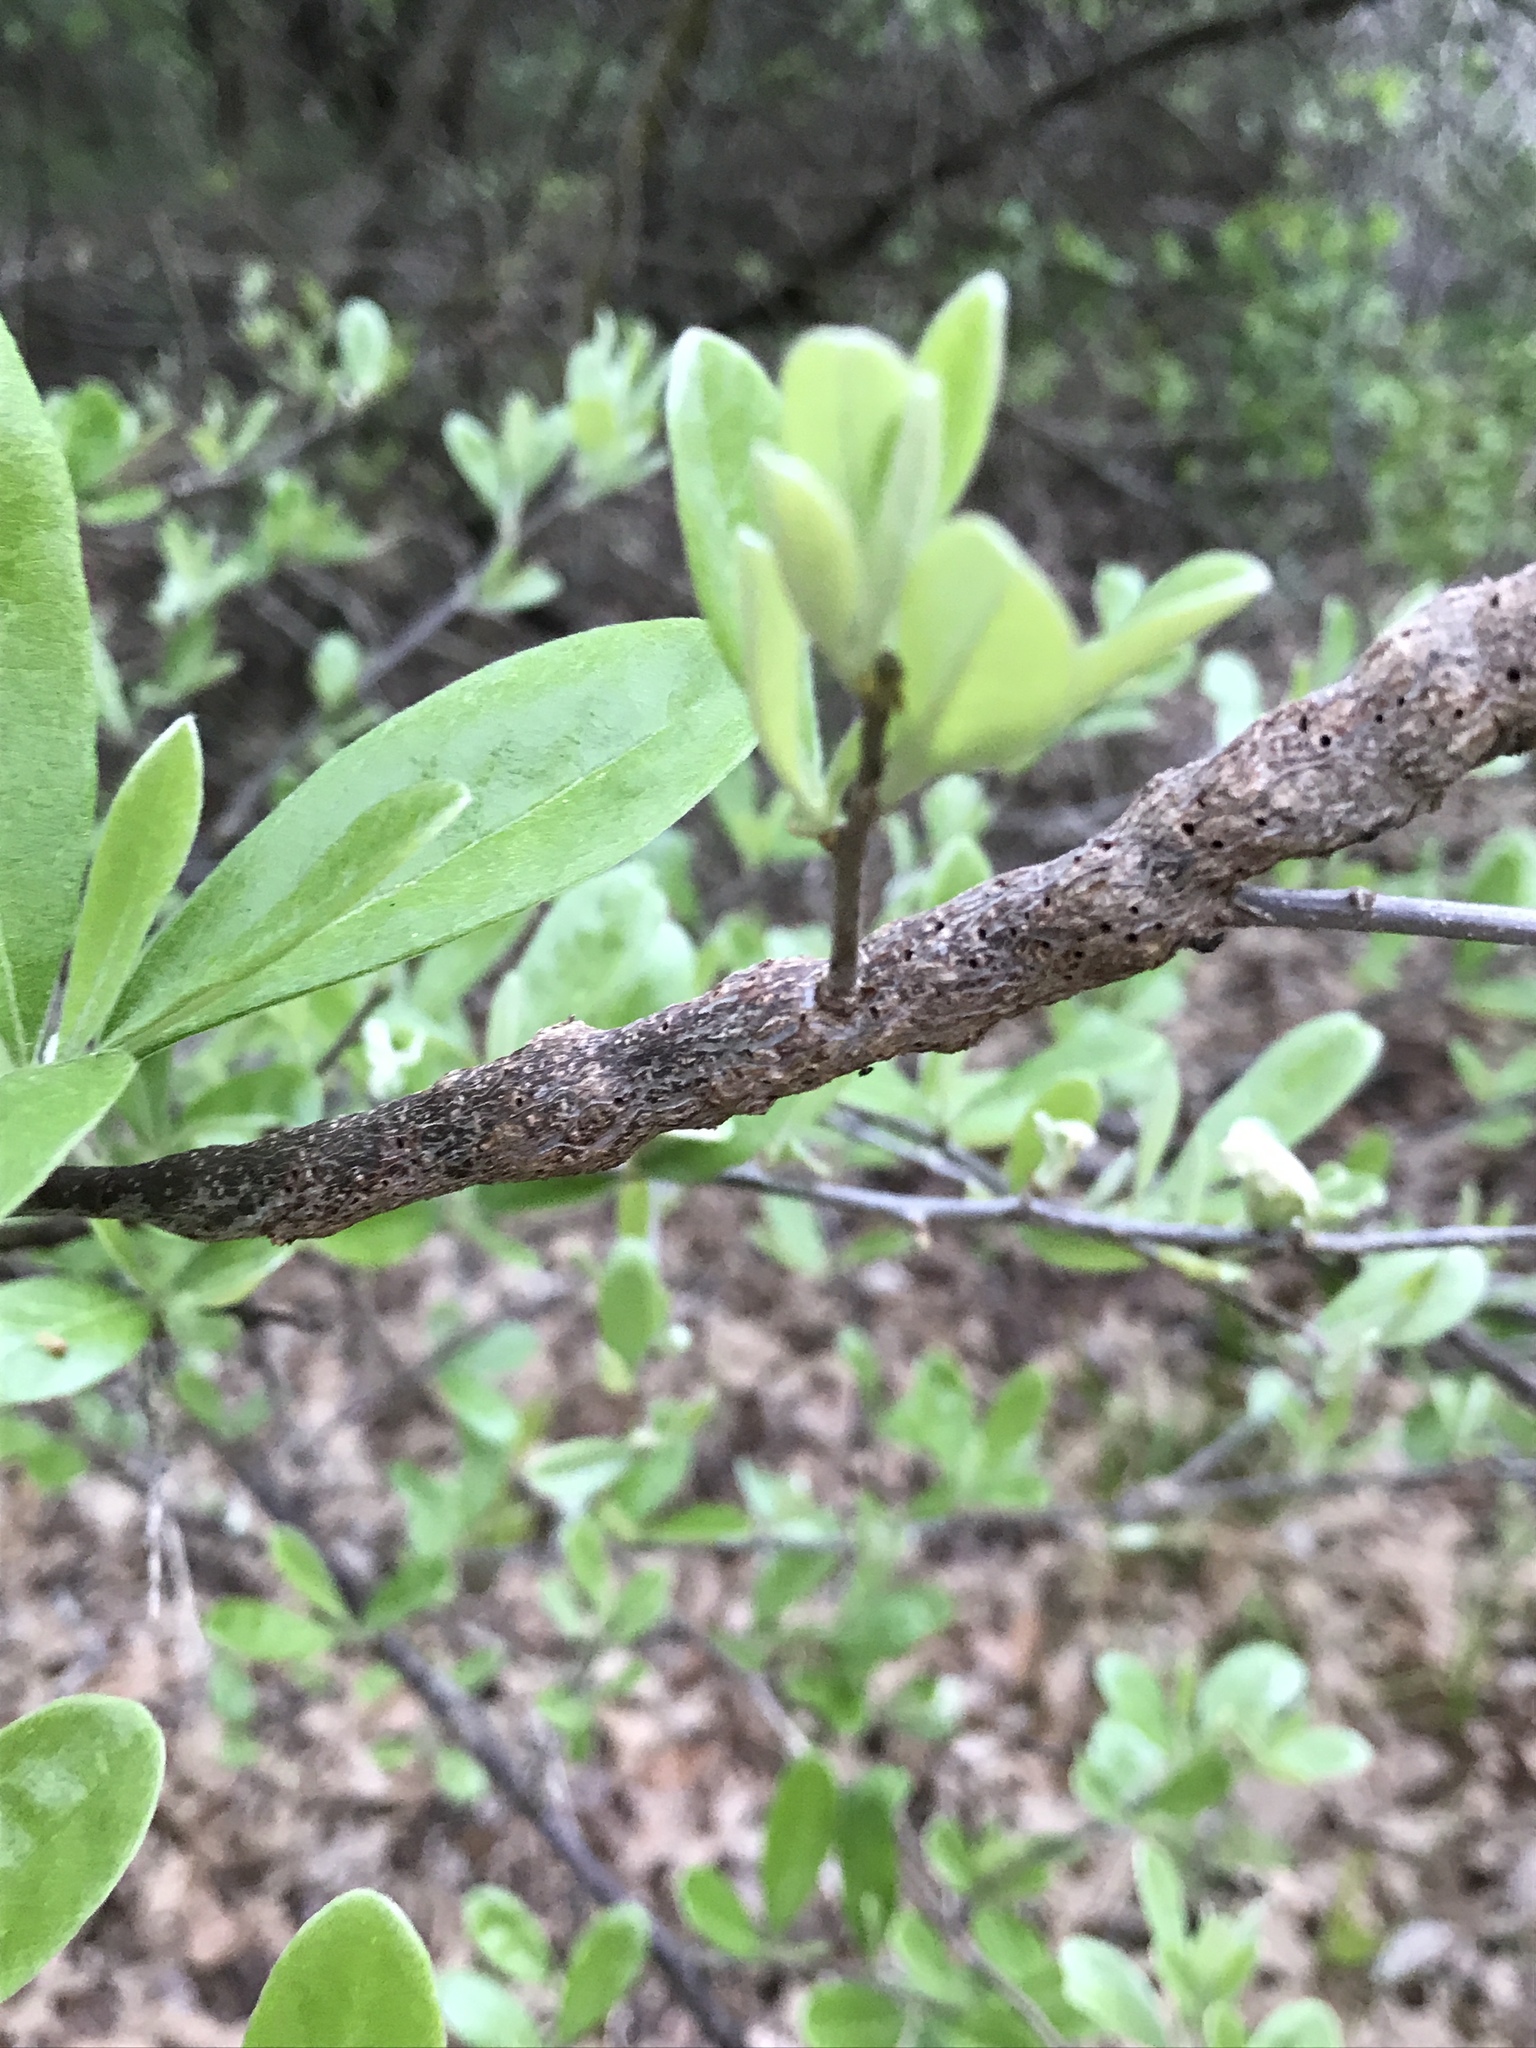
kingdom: Animalia
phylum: Arthropoda
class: Insecta
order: Diptera
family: Cecidomyiidae
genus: Bruggmanniella
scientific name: Bruggmanniella bumeliae
